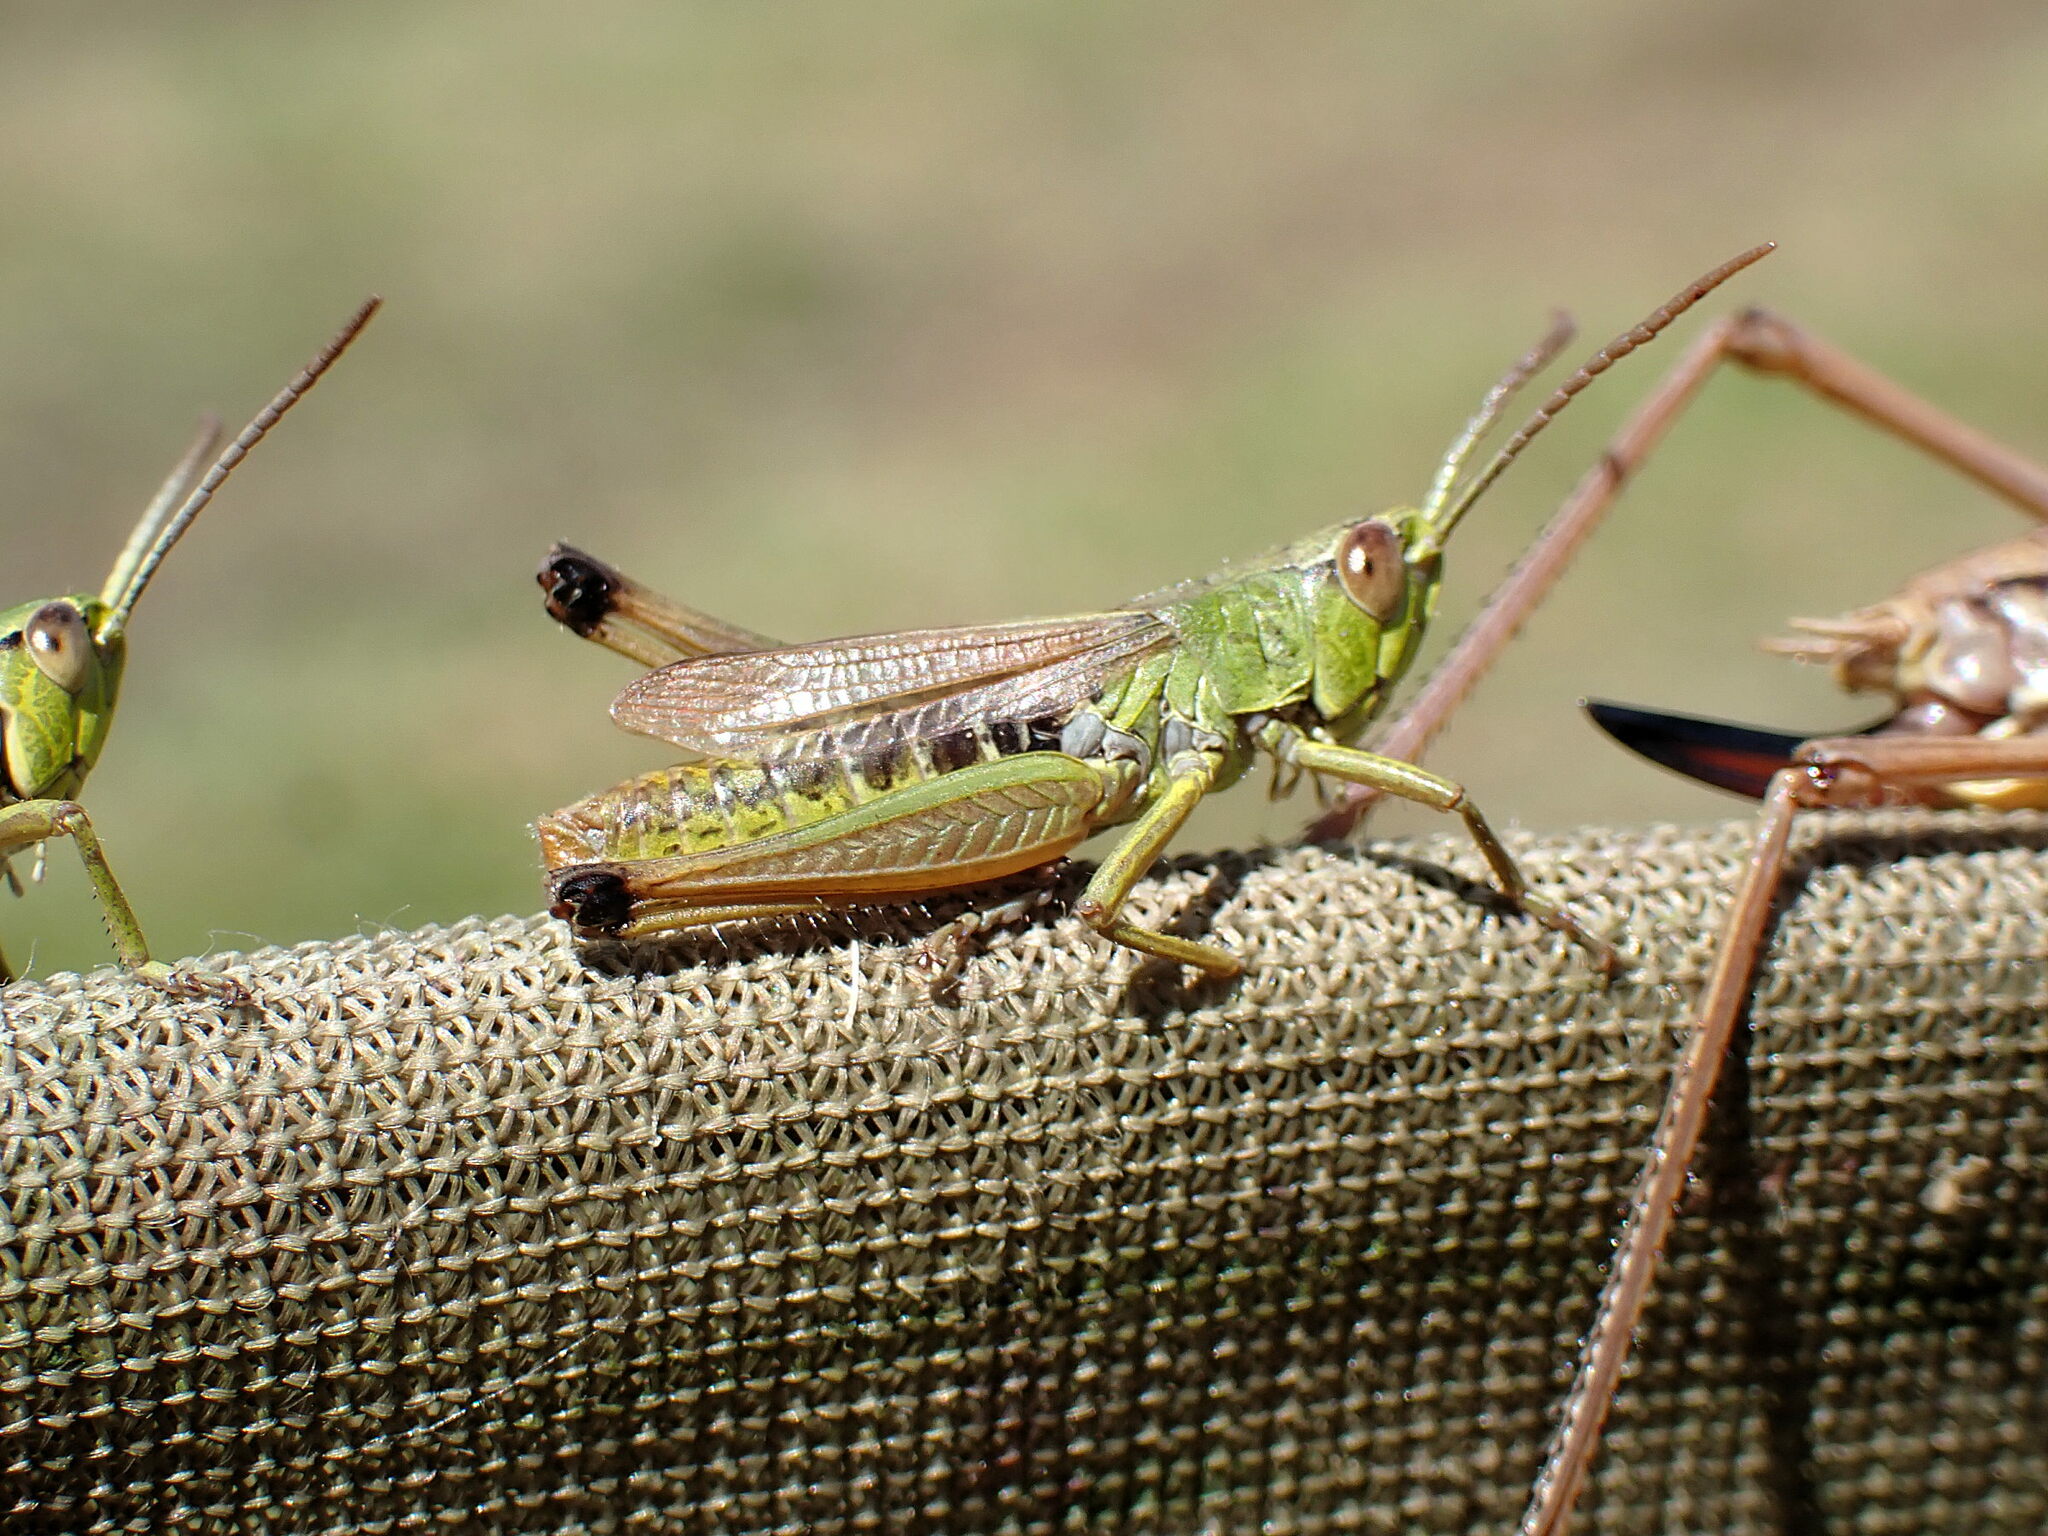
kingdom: Animalia
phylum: Arthropoda
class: Insecta
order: Orthoptera
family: Acrididae
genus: Pseudochorthippus
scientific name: Pseudochorthippus parallelus
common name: Meadow grasshopper
